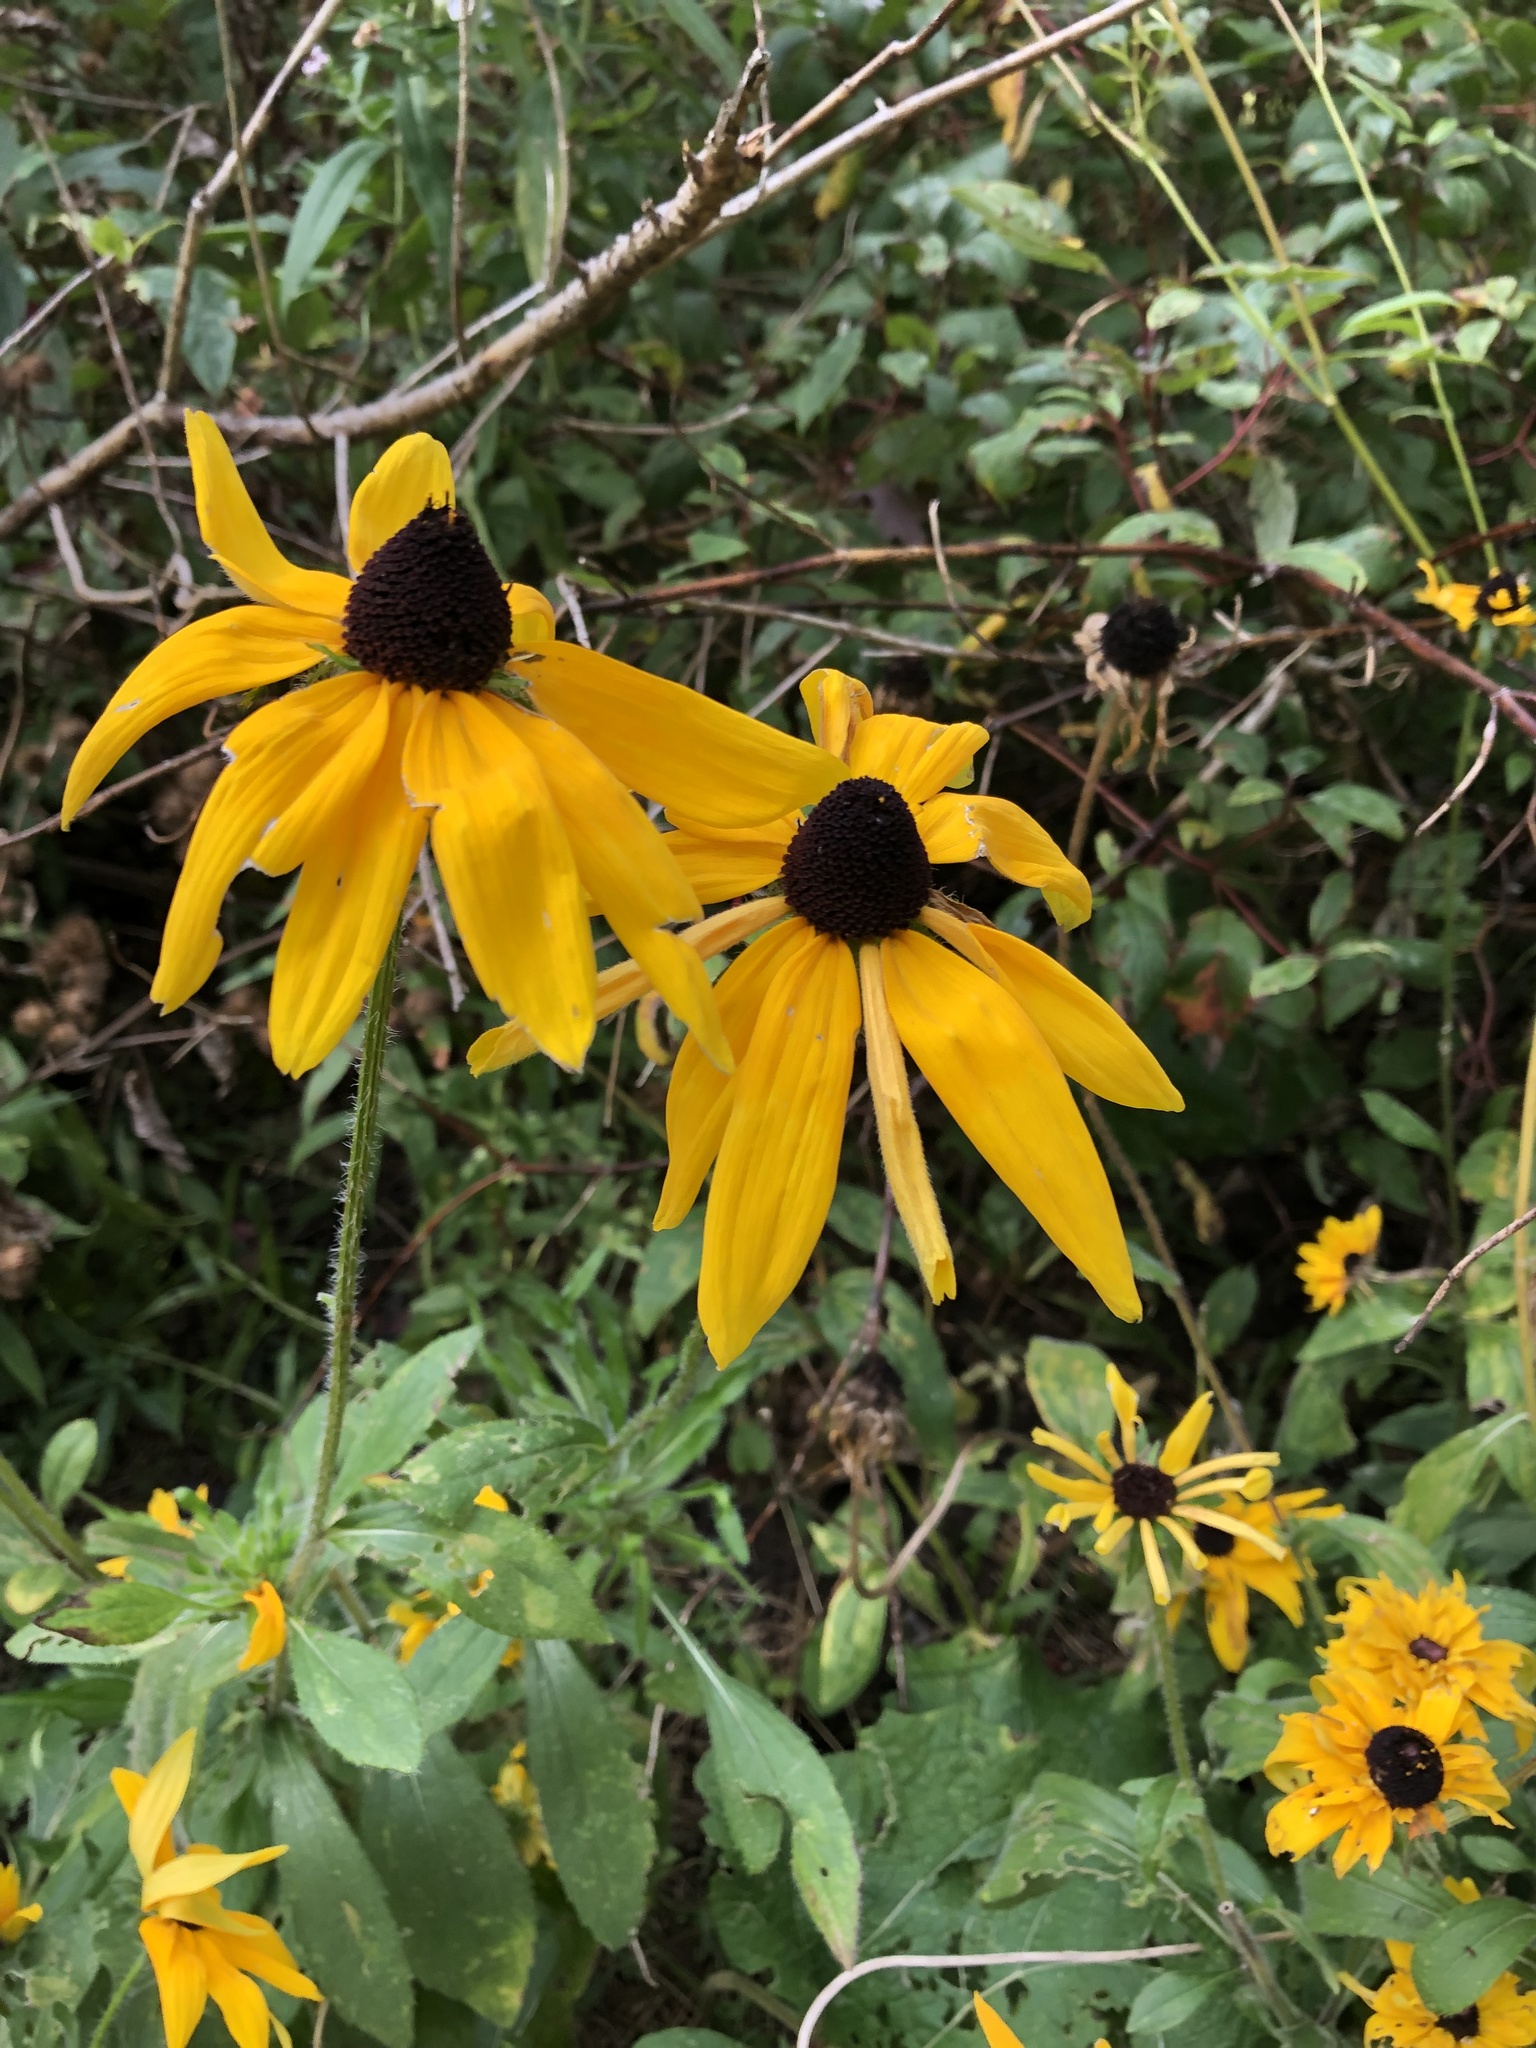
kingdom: Plantae
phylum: Tracheophyta
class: Magnoliopsida
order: Asterales
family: Asteraceae
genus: Rudbeckia
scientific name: Rudbeckia hirta
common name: Black-eyed-susan
